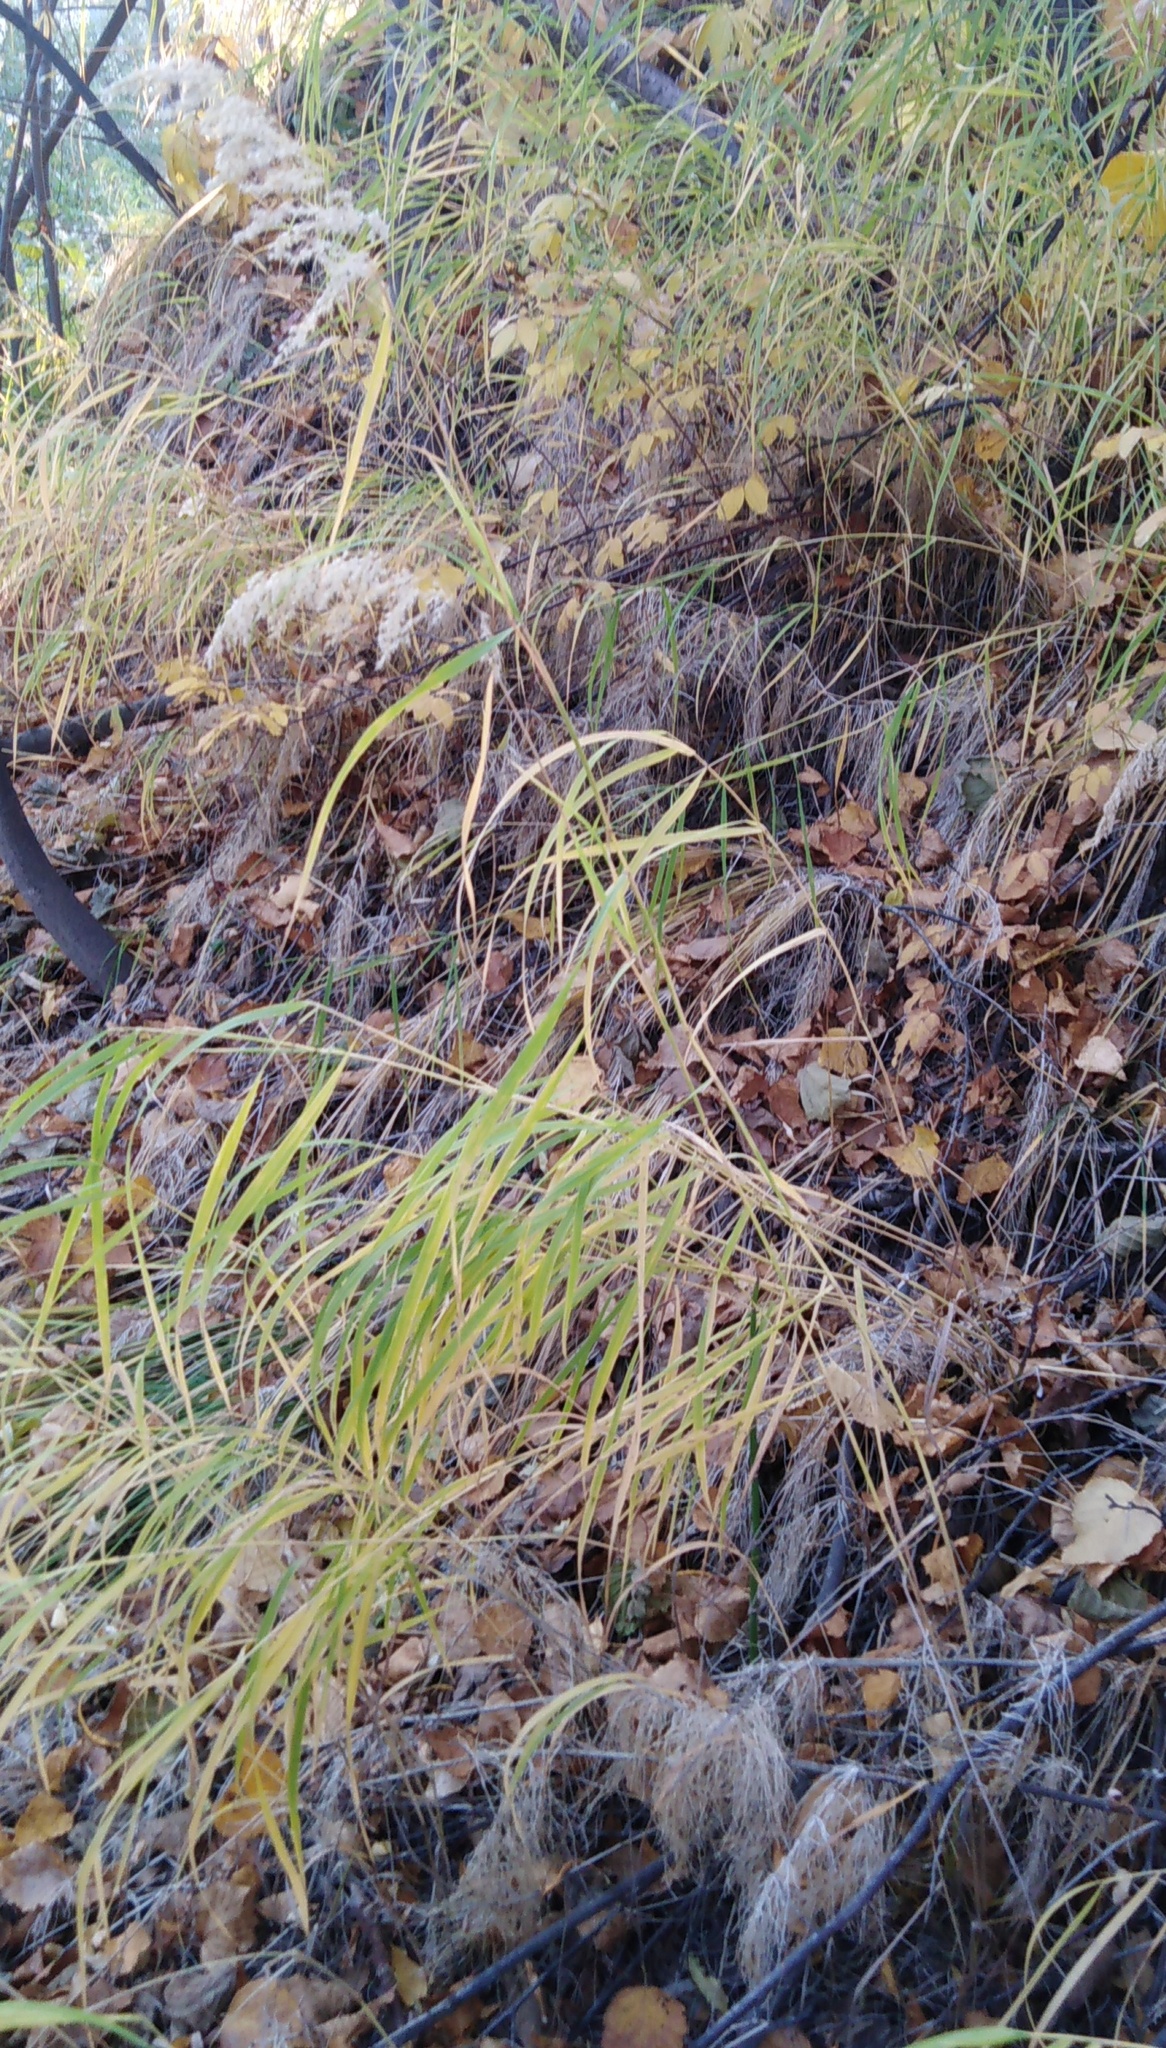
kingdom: Plantae
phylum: Tracheophyta
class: Liliopsida
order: Poales
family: Poaceae
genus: Calamagrostis
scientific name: Calamagrostis purpurea
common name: Scandinavian small-reed
